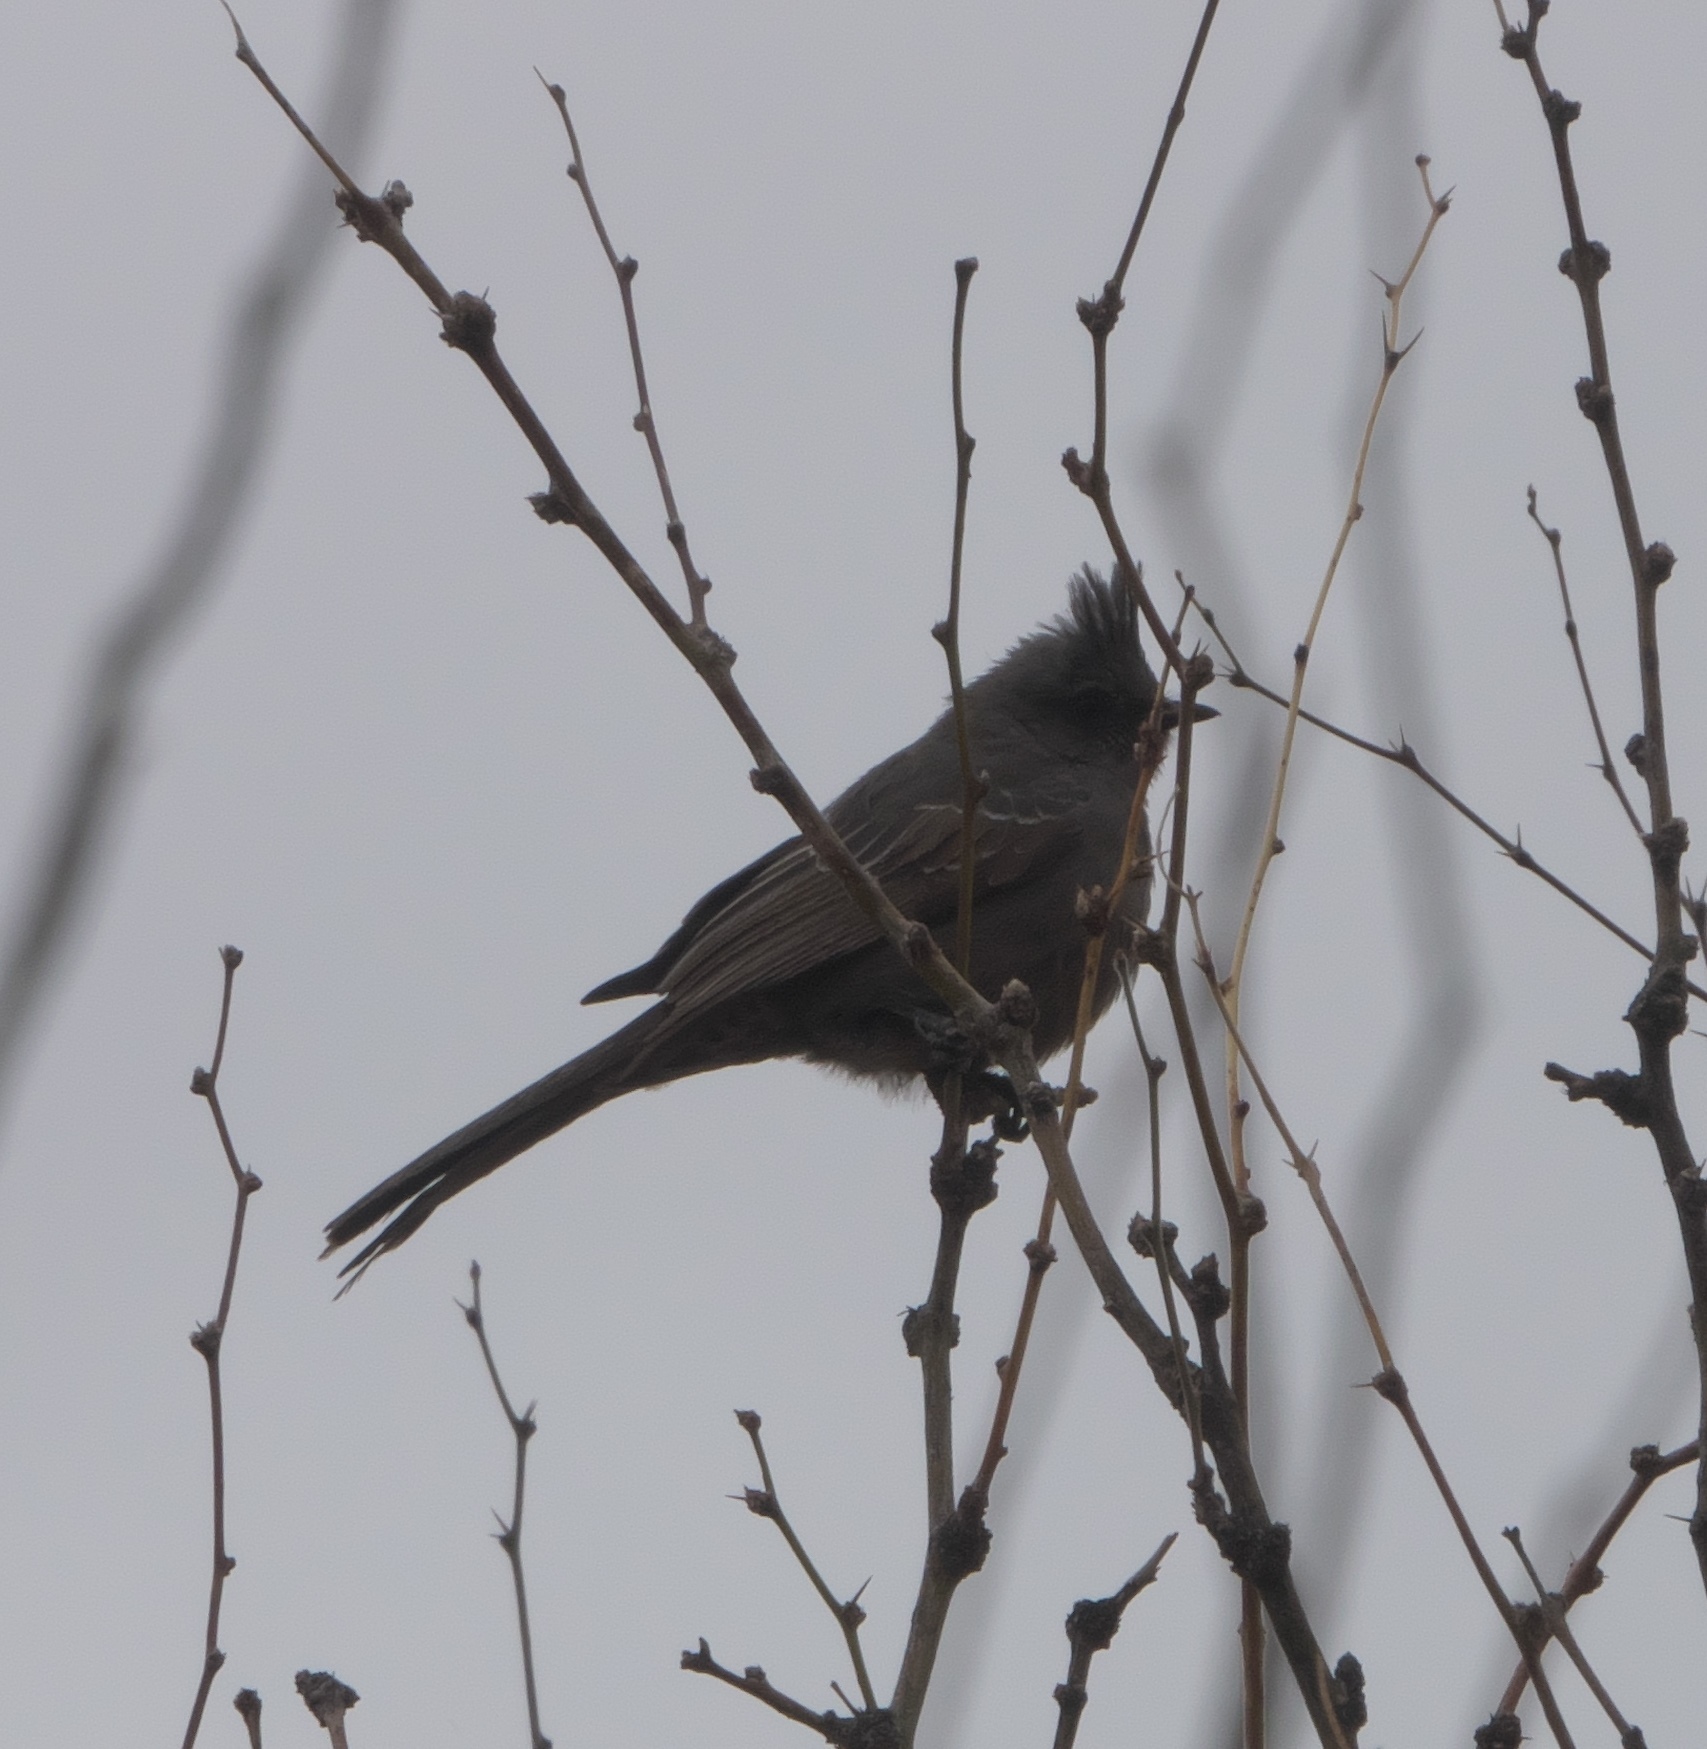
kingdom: Animalia
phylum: Chordata
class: Aves
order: Passeriformes
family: Ptilogonatidae
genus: Phainopepla
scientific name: Phainopepla nitens
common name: Phainopepla
